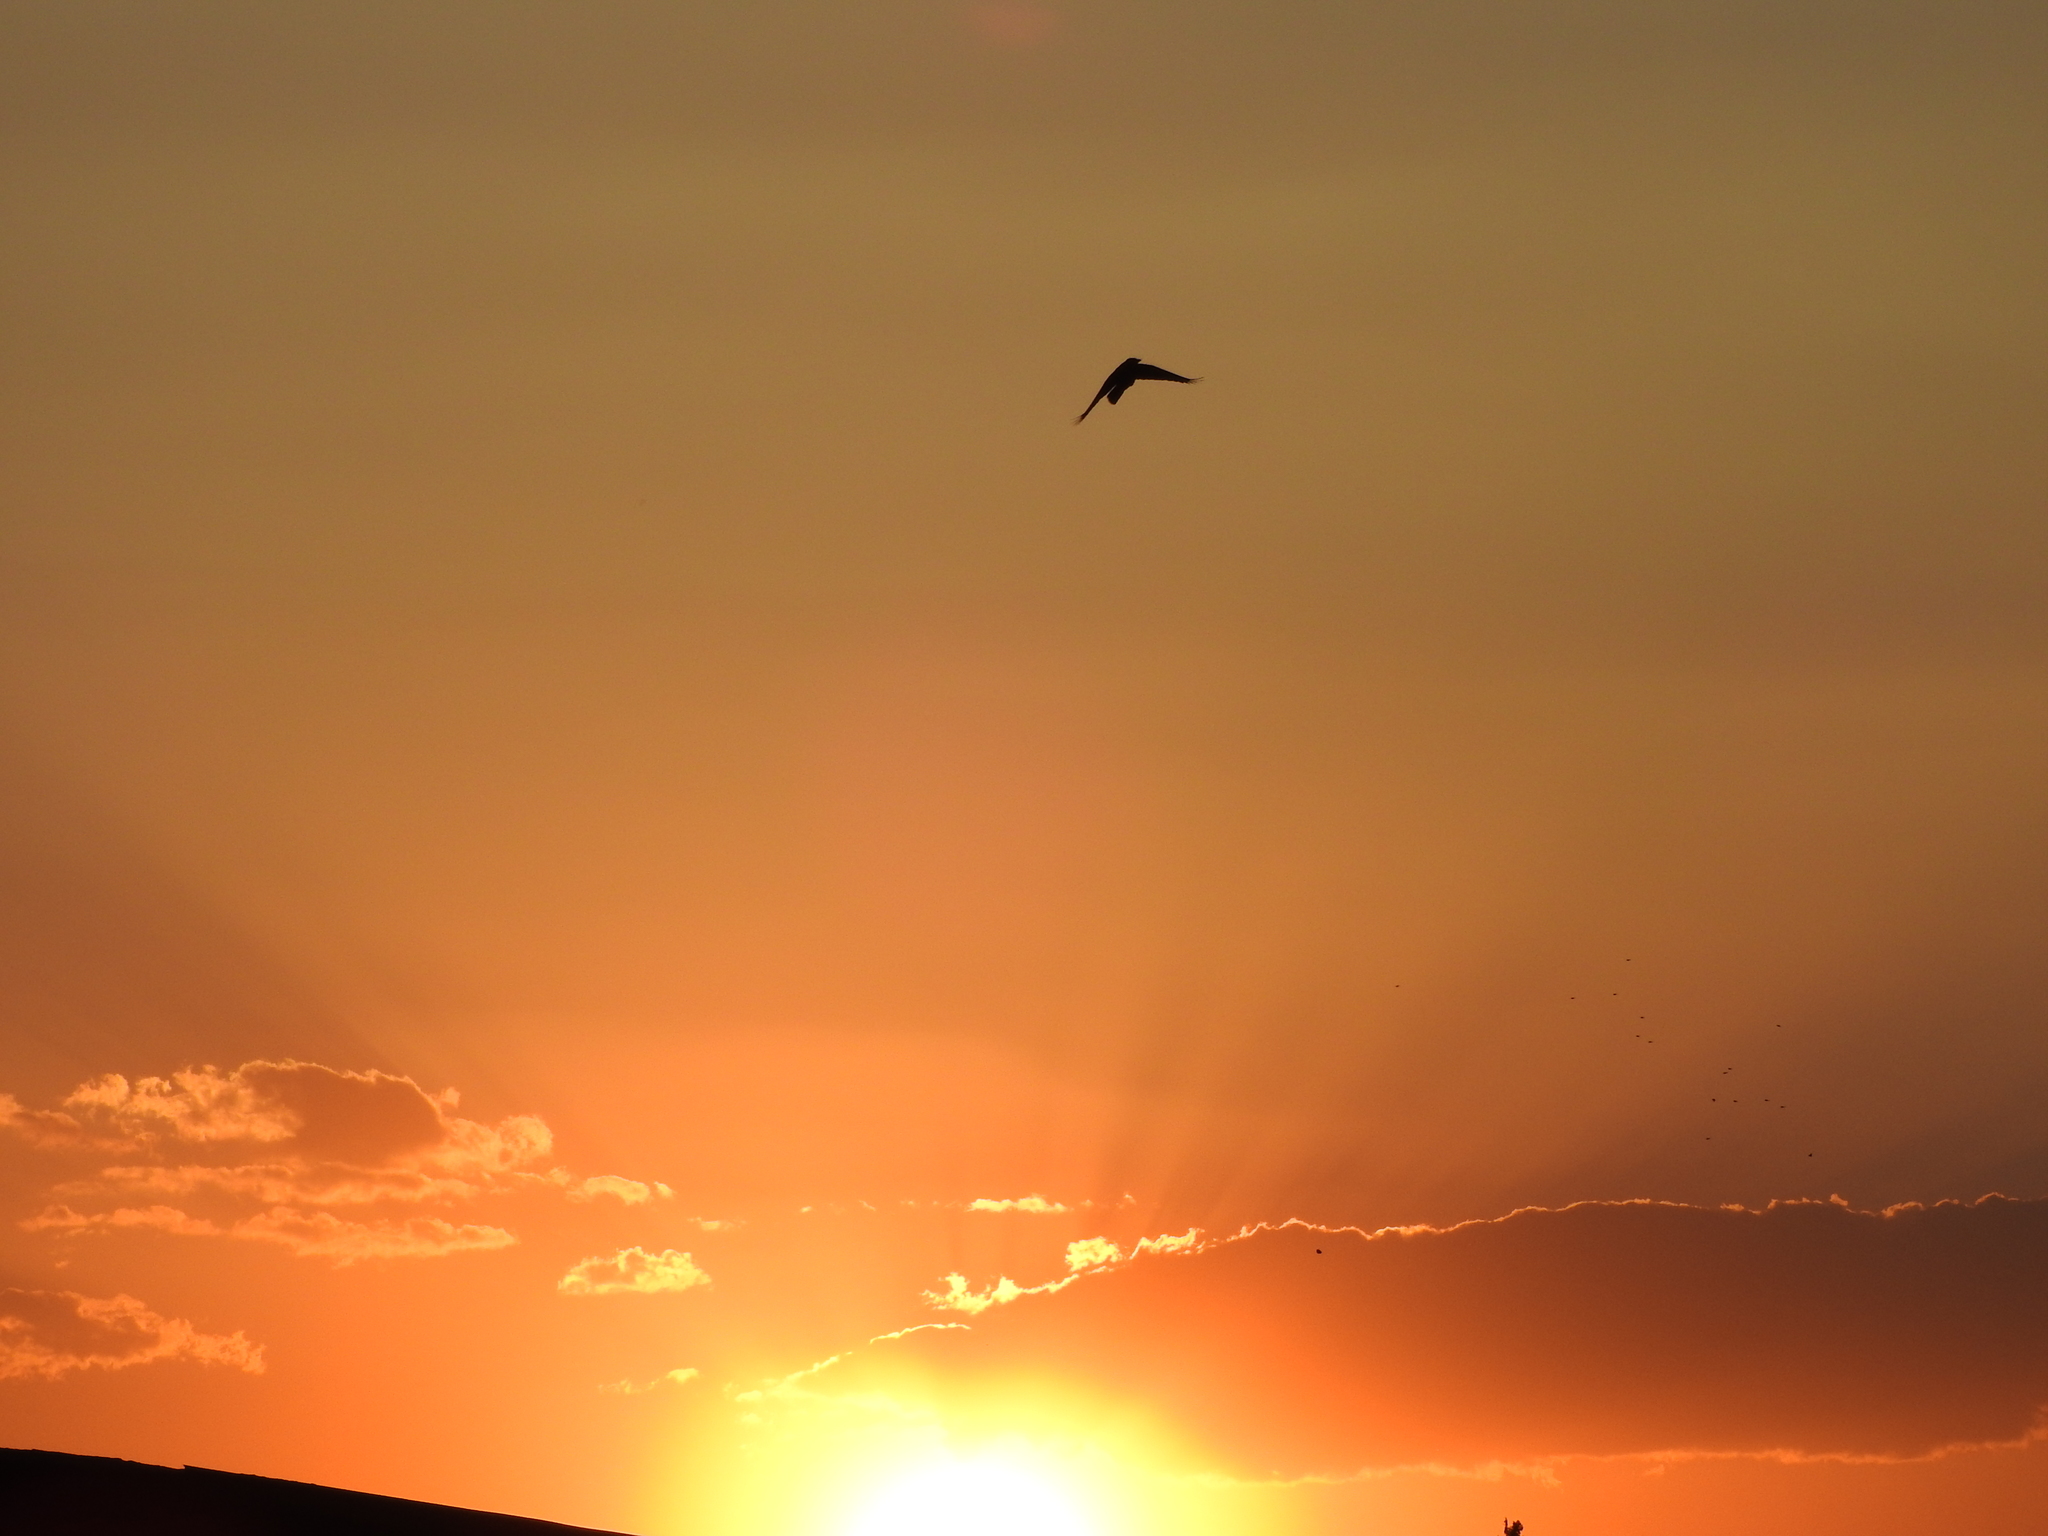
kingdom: Animalia
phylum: Chordata
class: Aves
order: Passeriformes
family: Hirundinidae
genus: Hirundo
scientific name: Hirundo rustica
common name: Barn swallow
